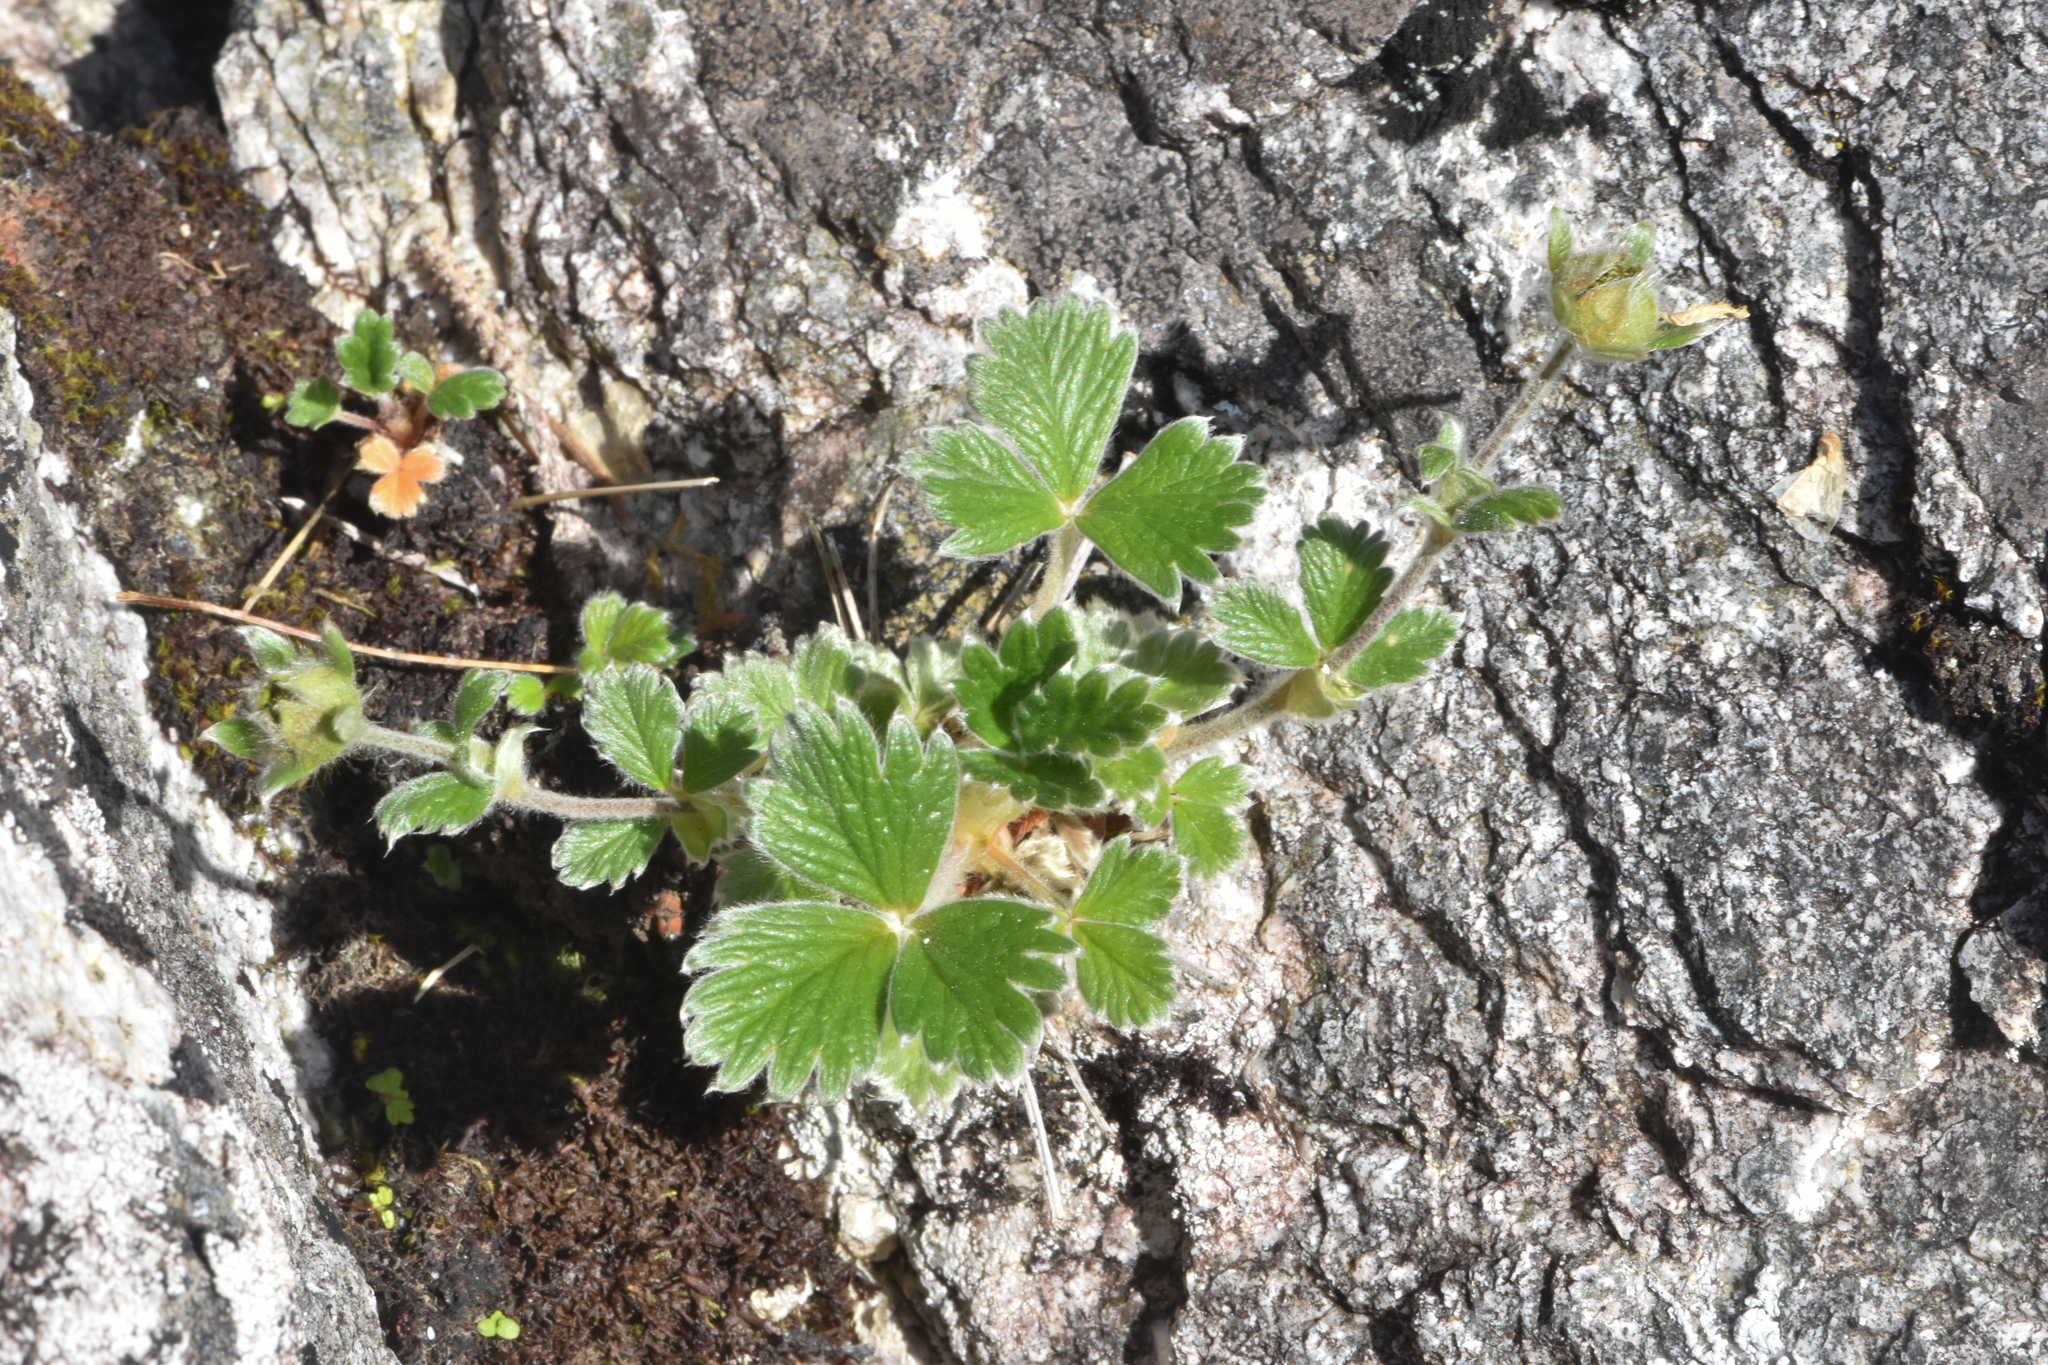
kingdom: Plantae
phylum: Tracheophyta
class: Magnoliopsida
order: Rosales
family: Rosaceae
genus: Potentilla
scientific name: Potentilla villosa
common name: Northern cinquefoil
